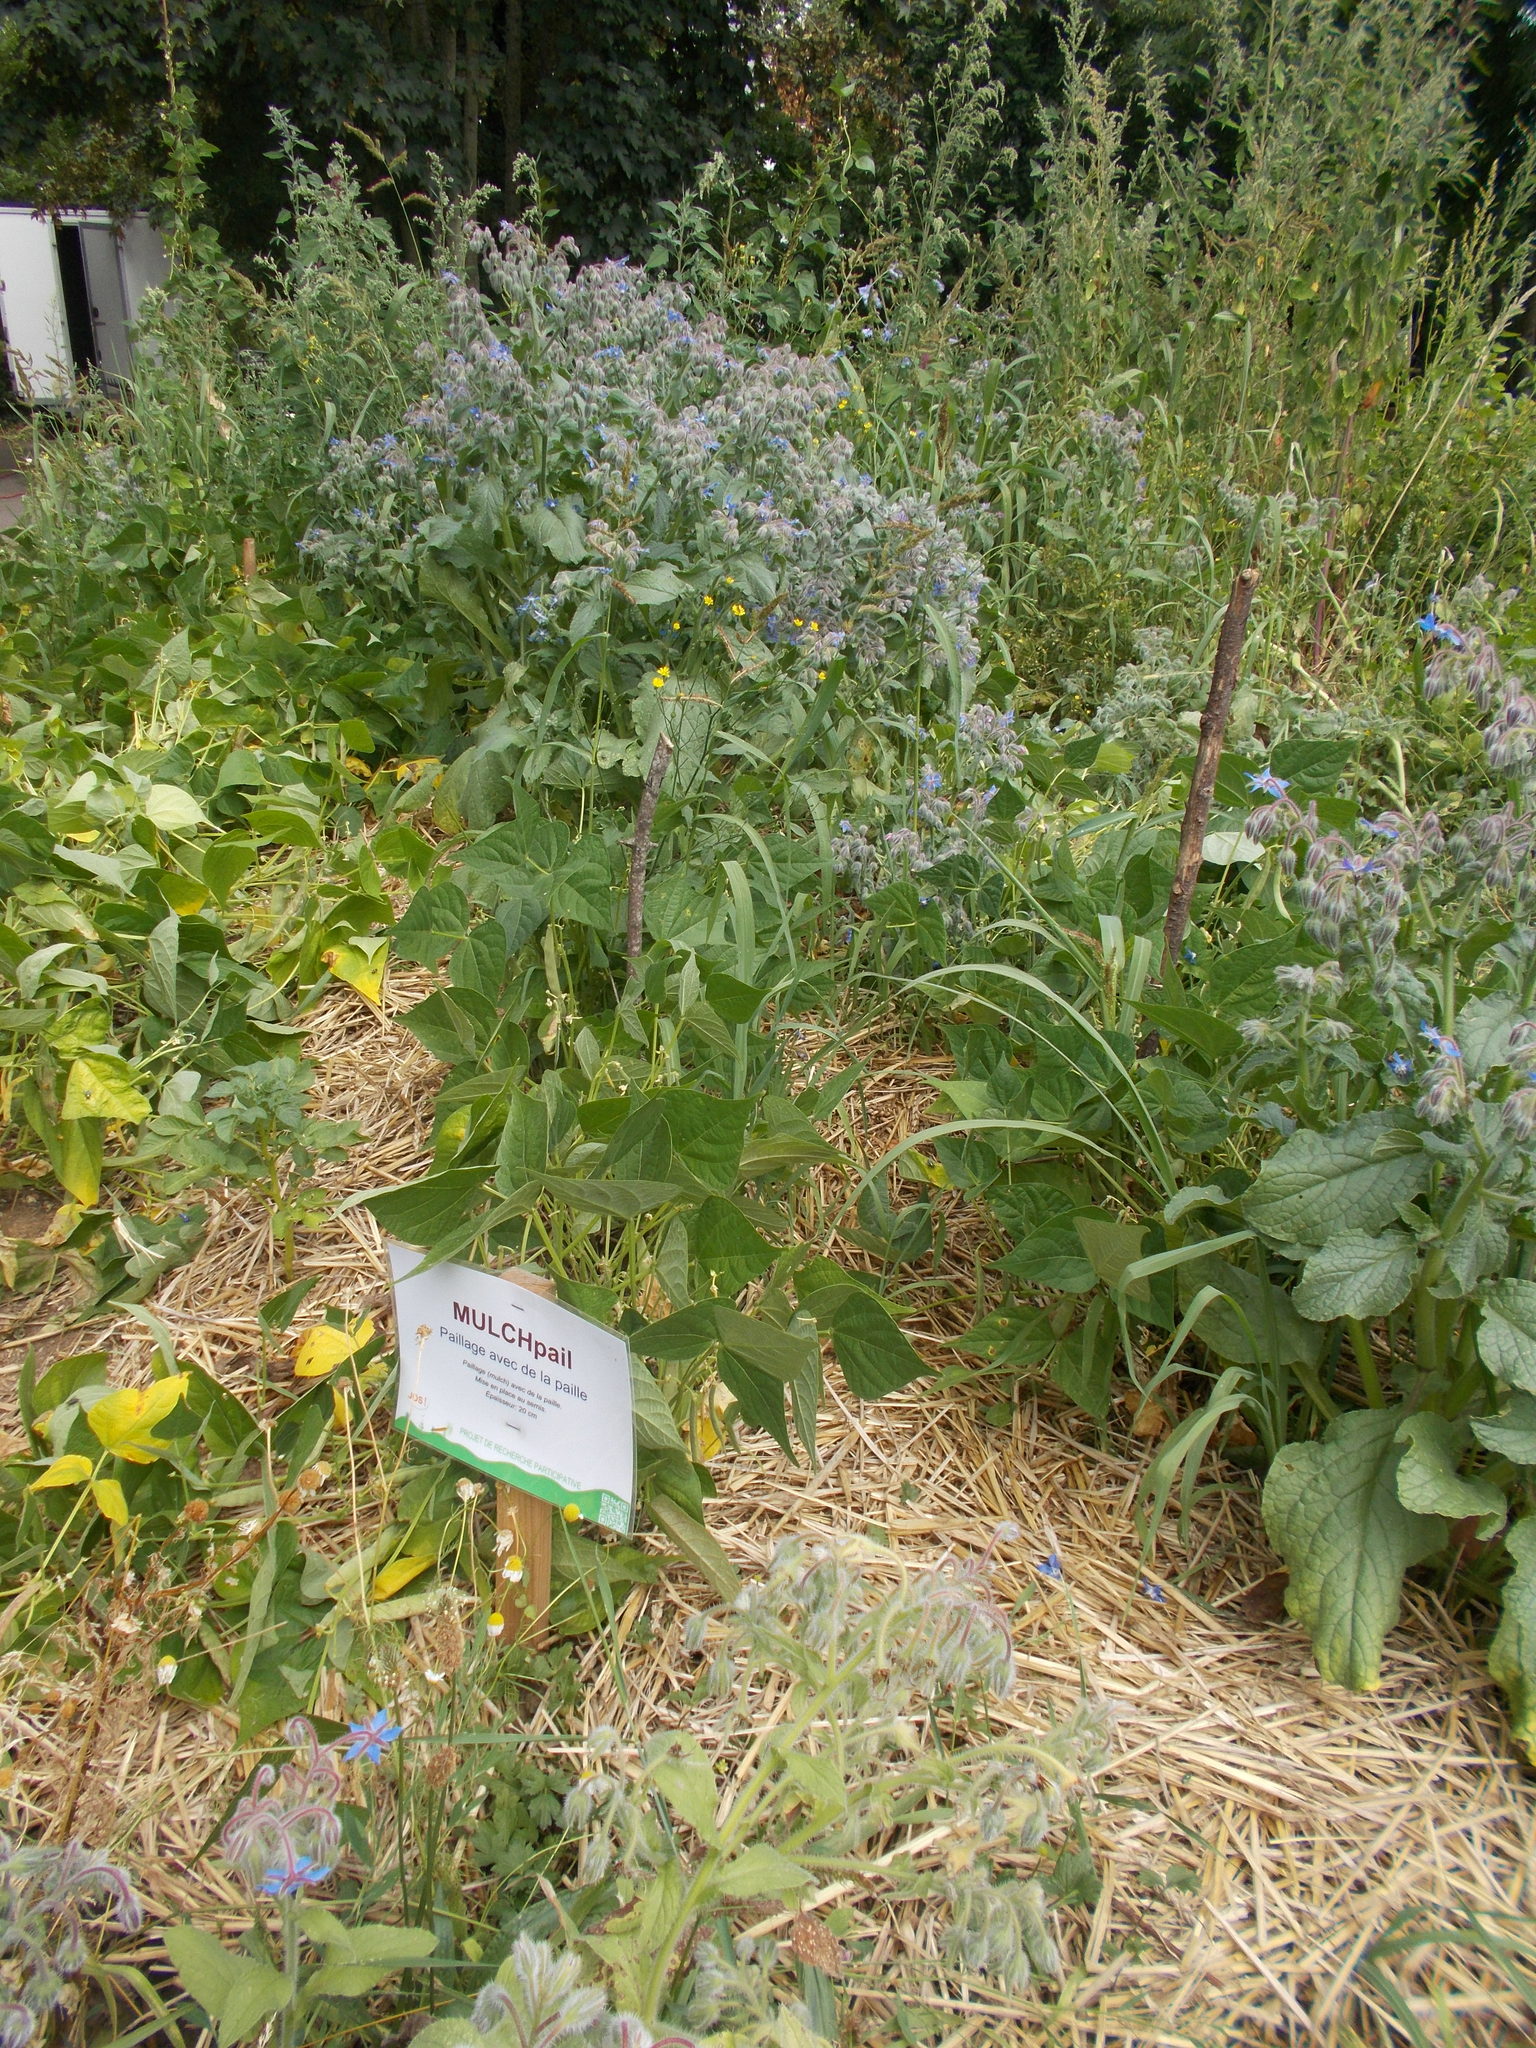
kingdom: Plantae
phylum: Tracheophyta
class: Magnoliopsida
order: Boraginales
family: Boraginaceae
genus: Borago
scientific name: Borago officinalis
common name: Borage
